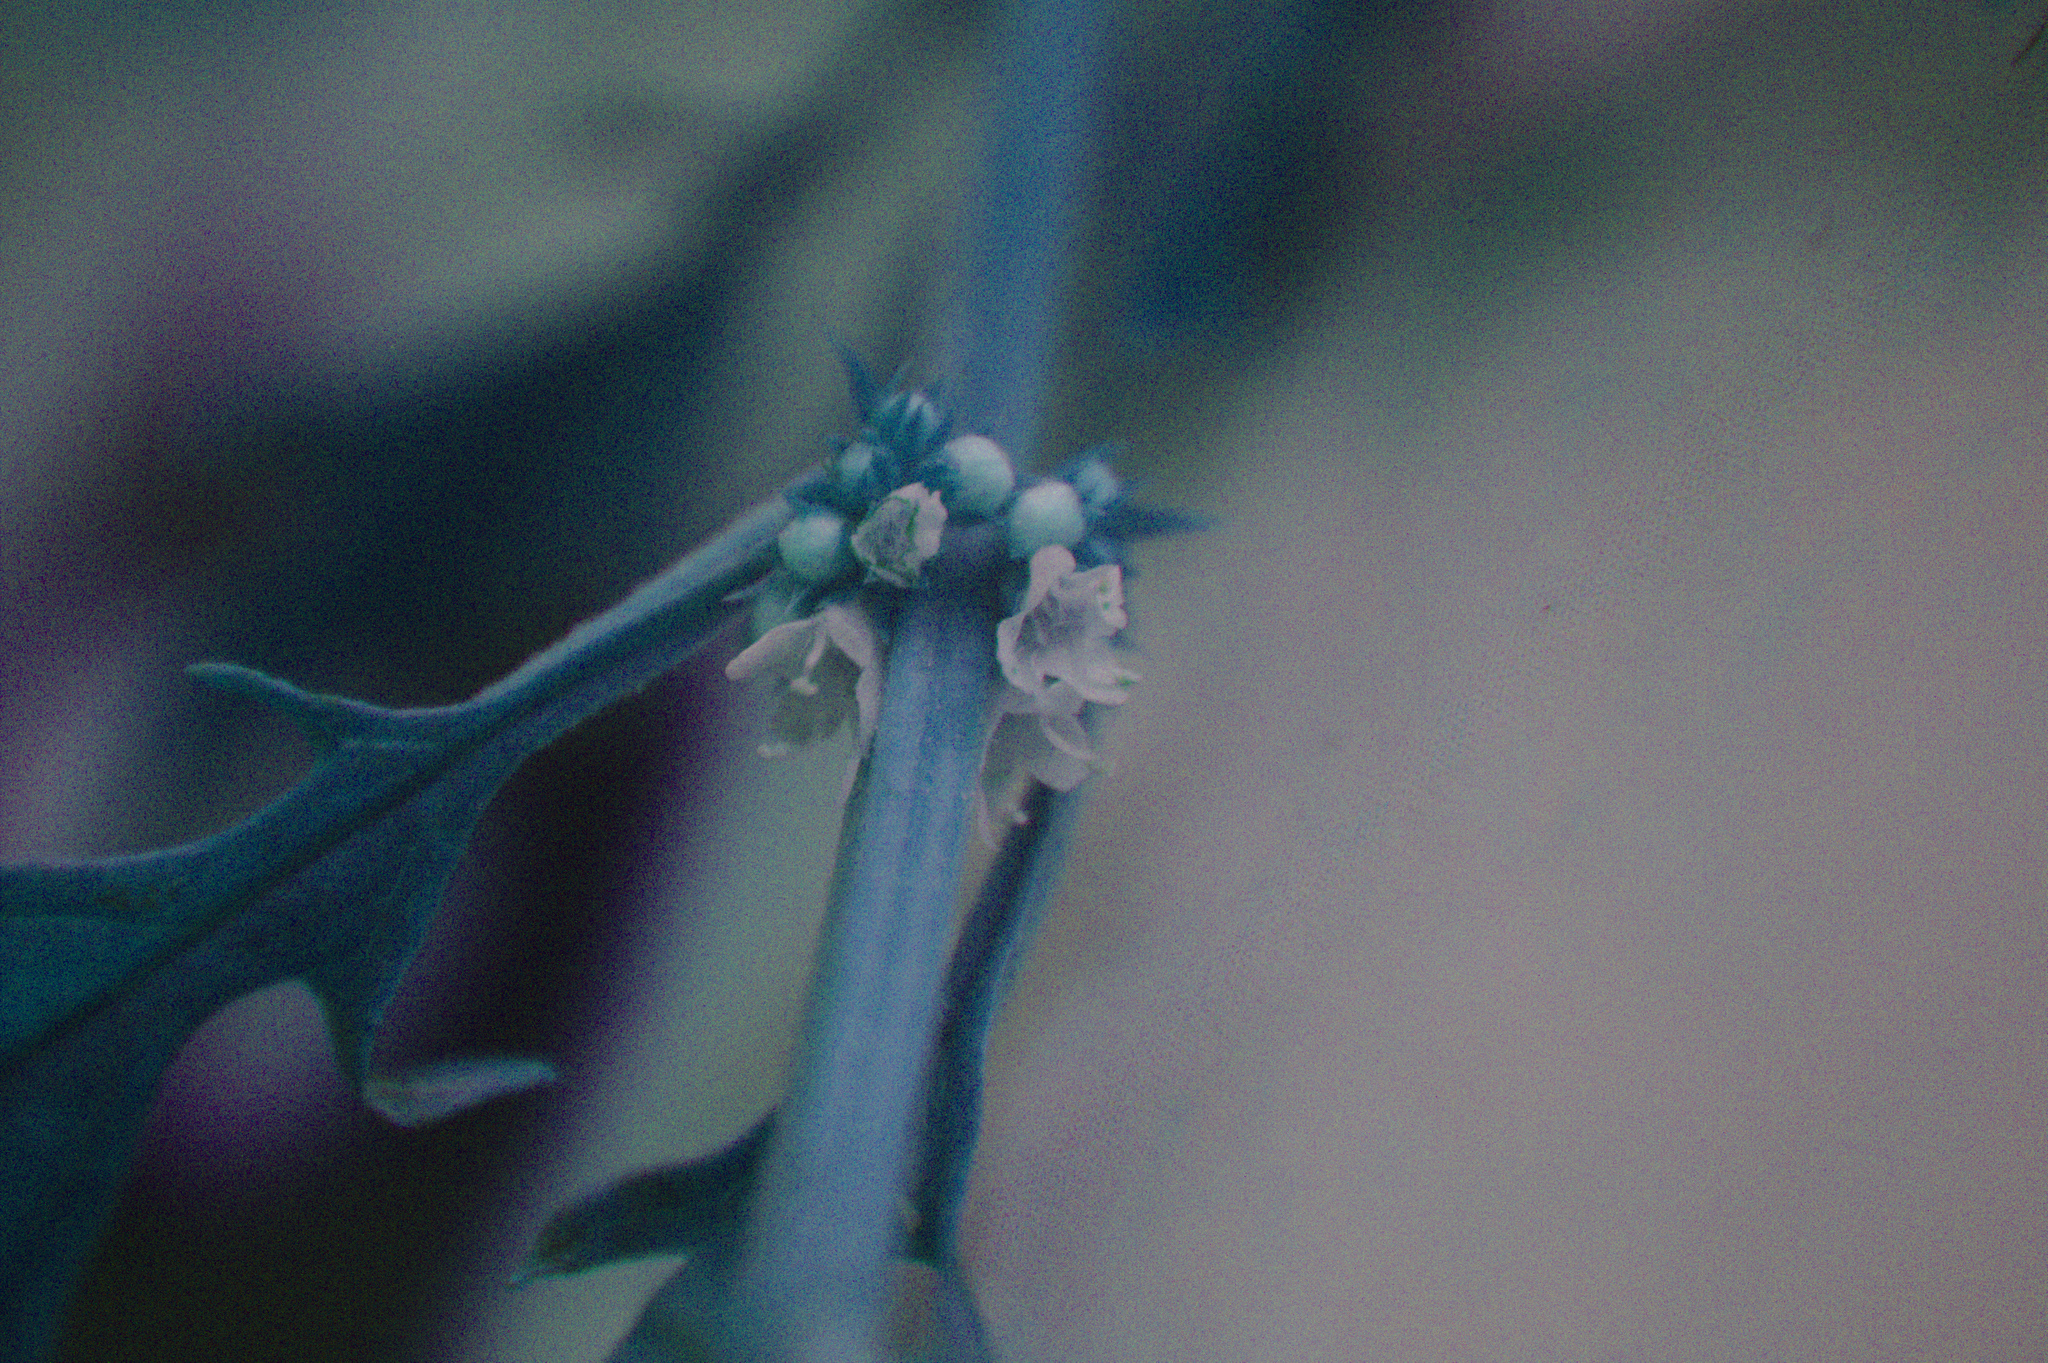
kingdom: Plantae
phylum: Tracheophyta
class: Magnoliopsida
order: Lamiales
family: Lamiaceae
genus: Lycopus
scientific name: Lycopus americanus
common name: American bugleweed
